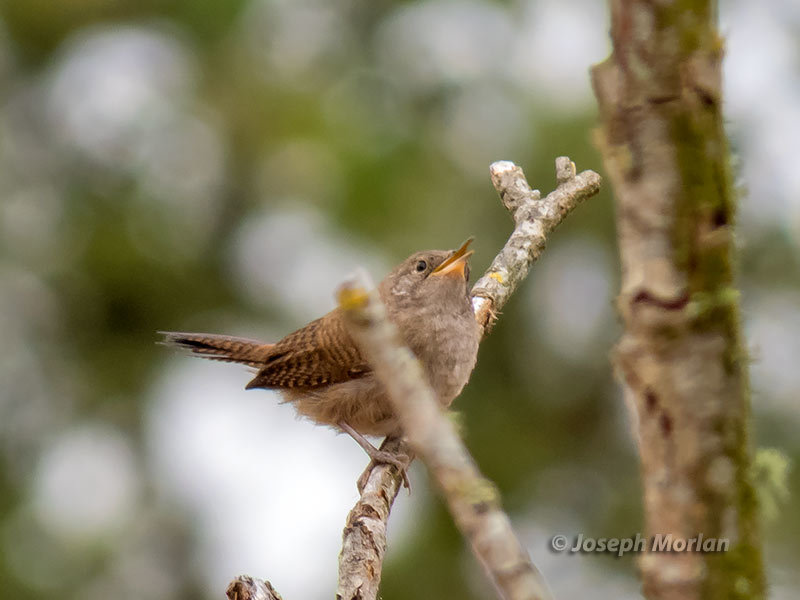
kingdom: Animalia
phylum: Chordata
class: Aves
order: Passeriformes
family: Troglodytidae
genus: Troglodytes
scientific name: Troglodytes aedon
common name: House wren
